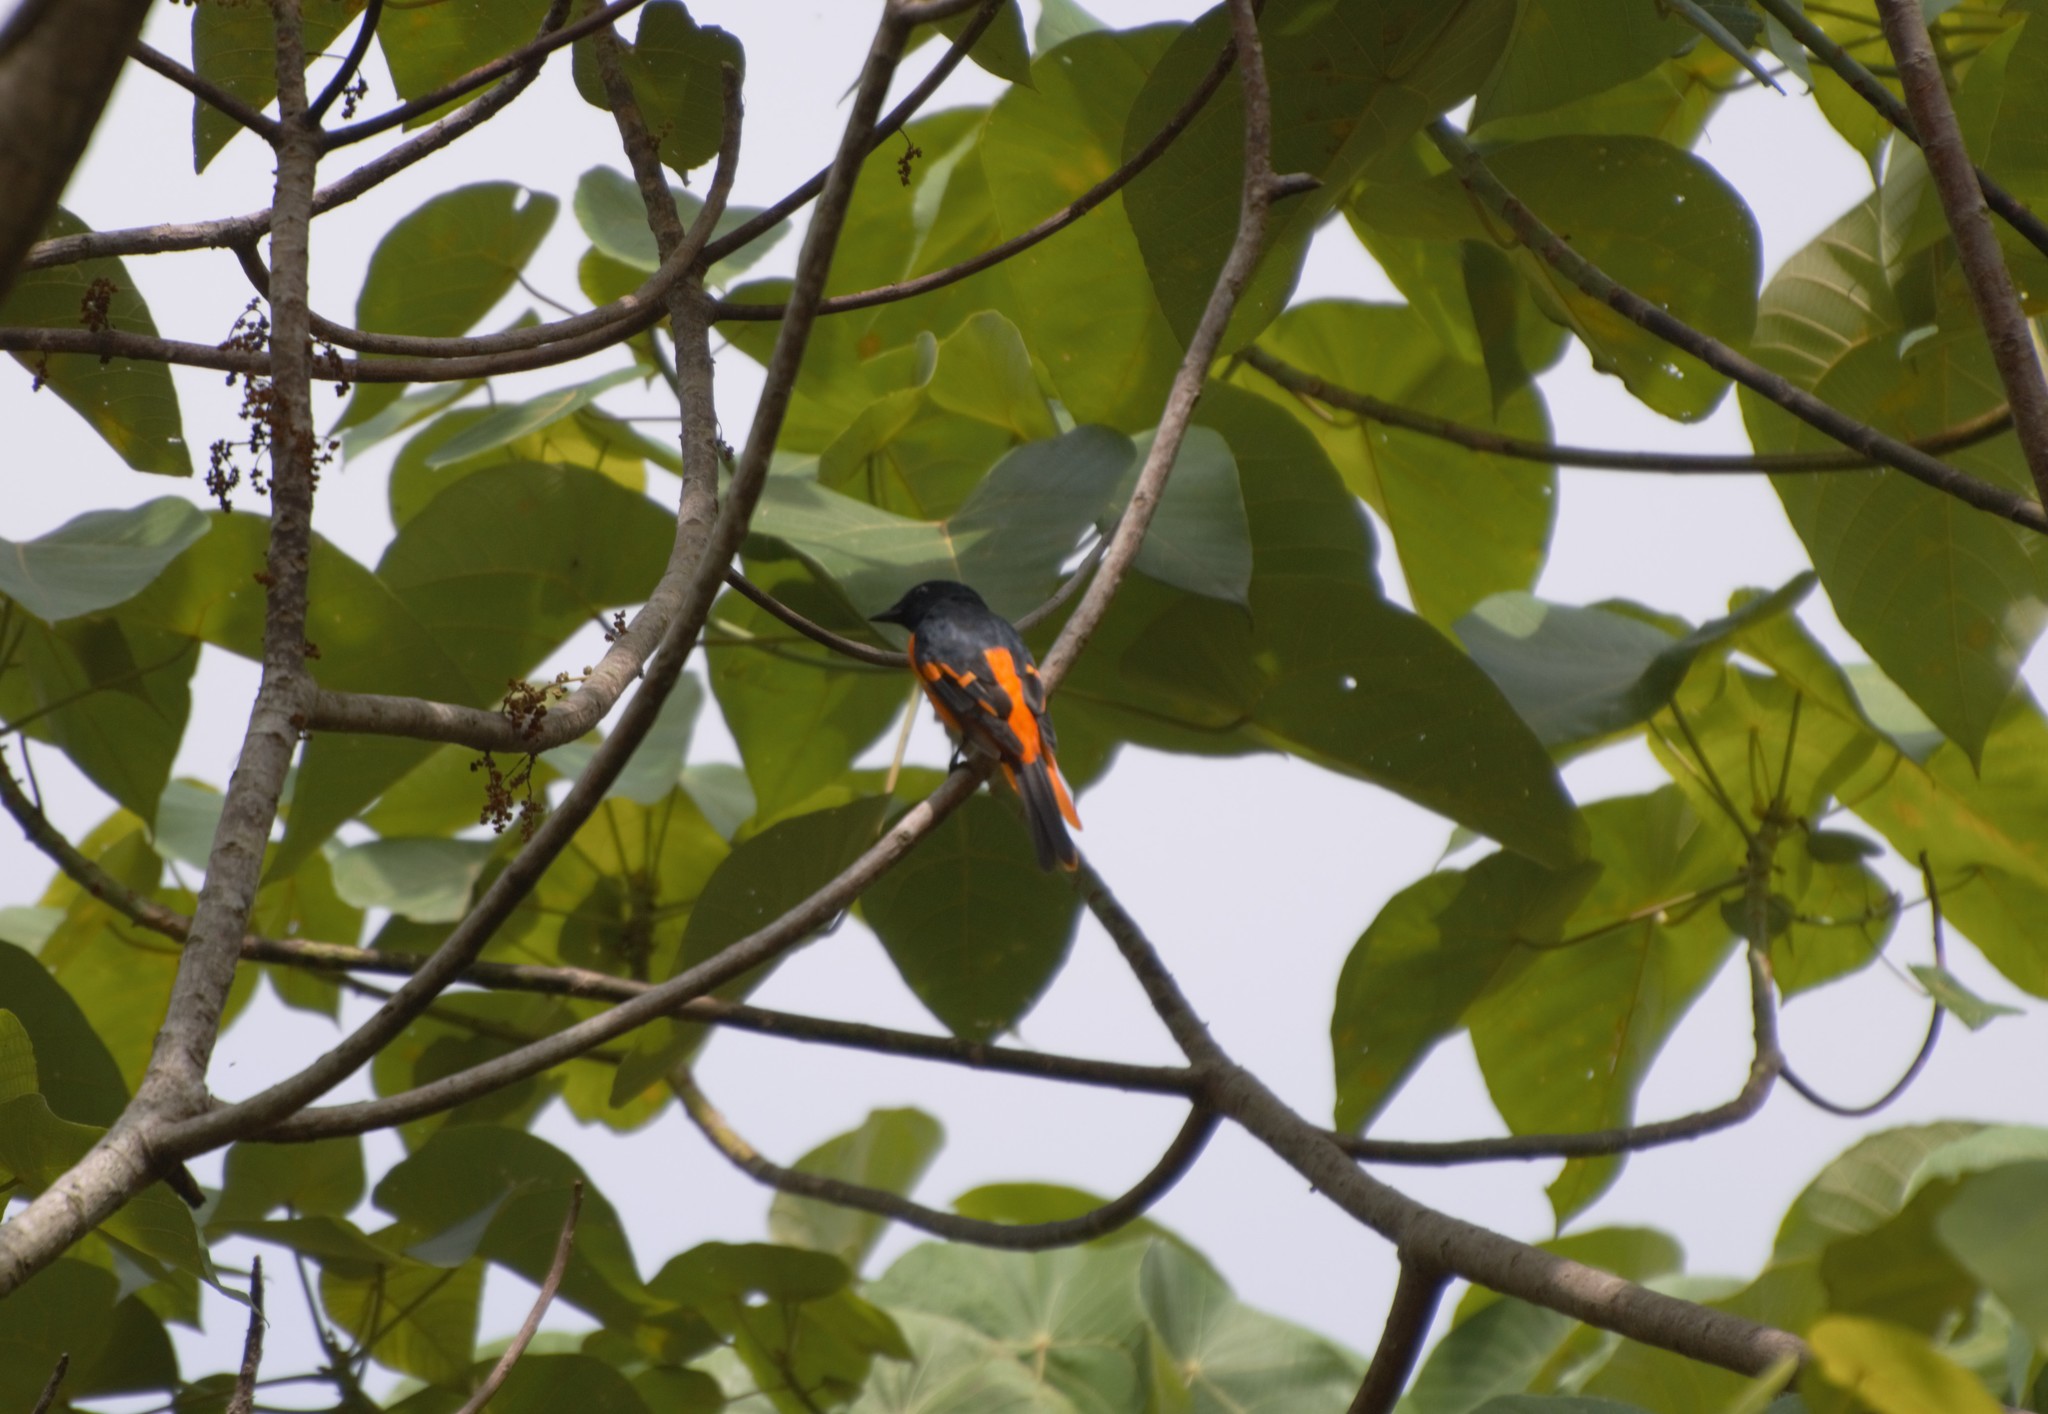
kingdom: Animalia
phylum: Chordata
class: Aves
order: Passeriformes
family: Campephagidae
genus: Pericrocotus
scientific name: Pericrocotus flammeus
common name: Orange minivet
